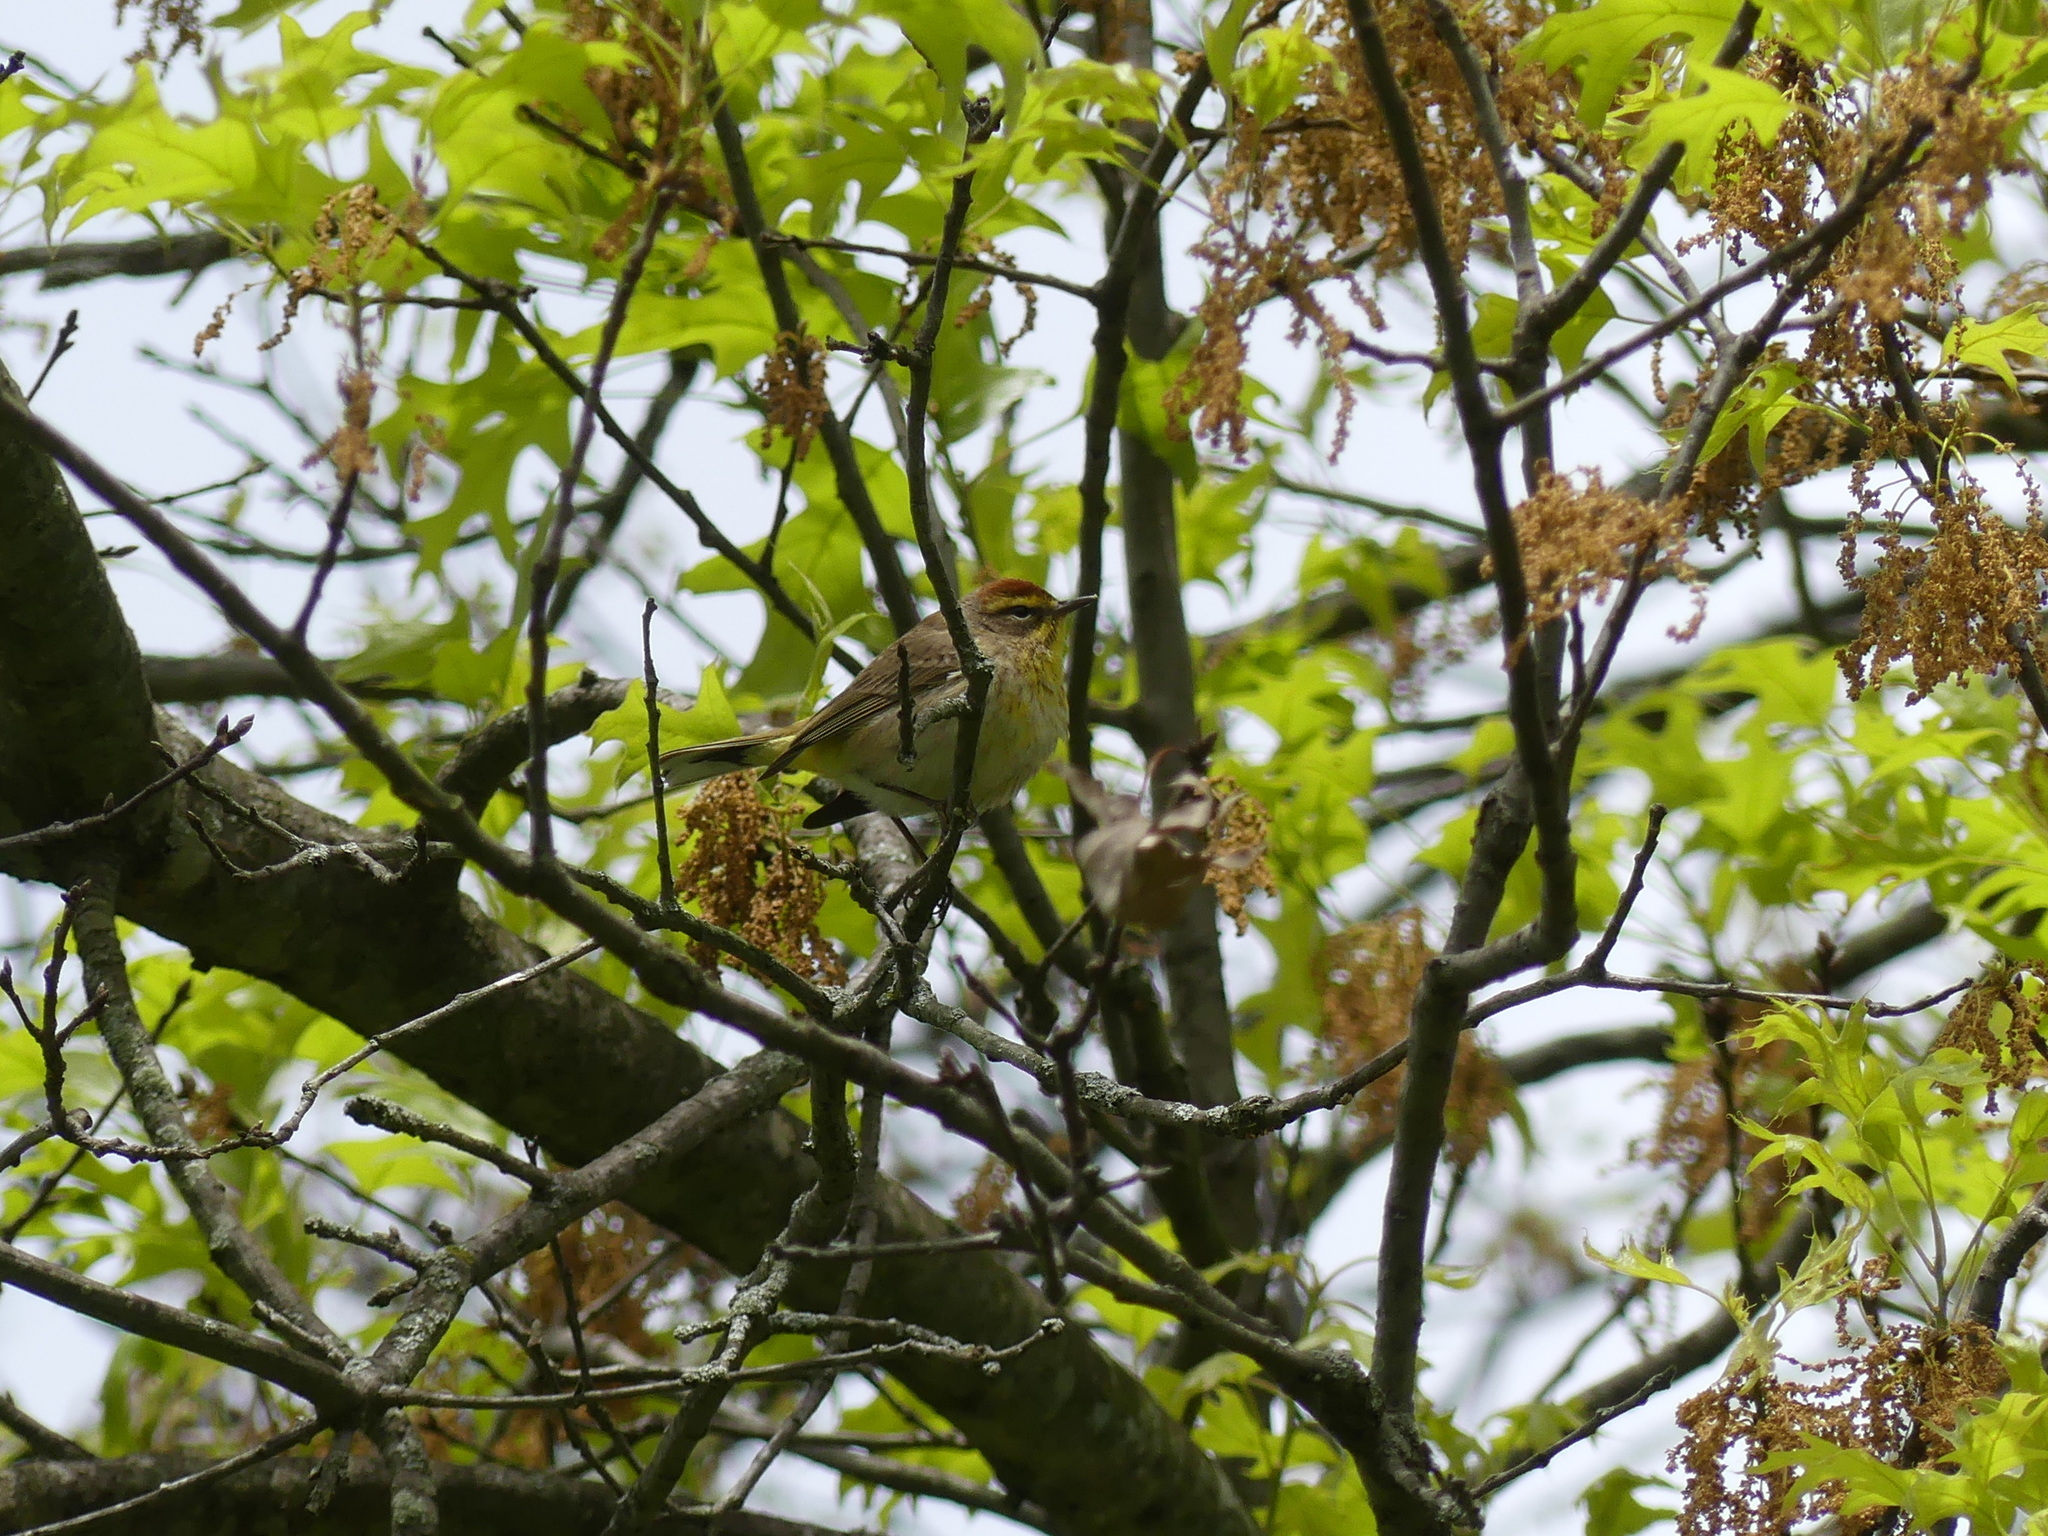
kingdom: Animalia
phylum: Chordata
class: Aves
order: Passeriformes
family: Parulidae
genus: Setophaga
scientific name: Setophaga palmarum
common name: Palm warbler
